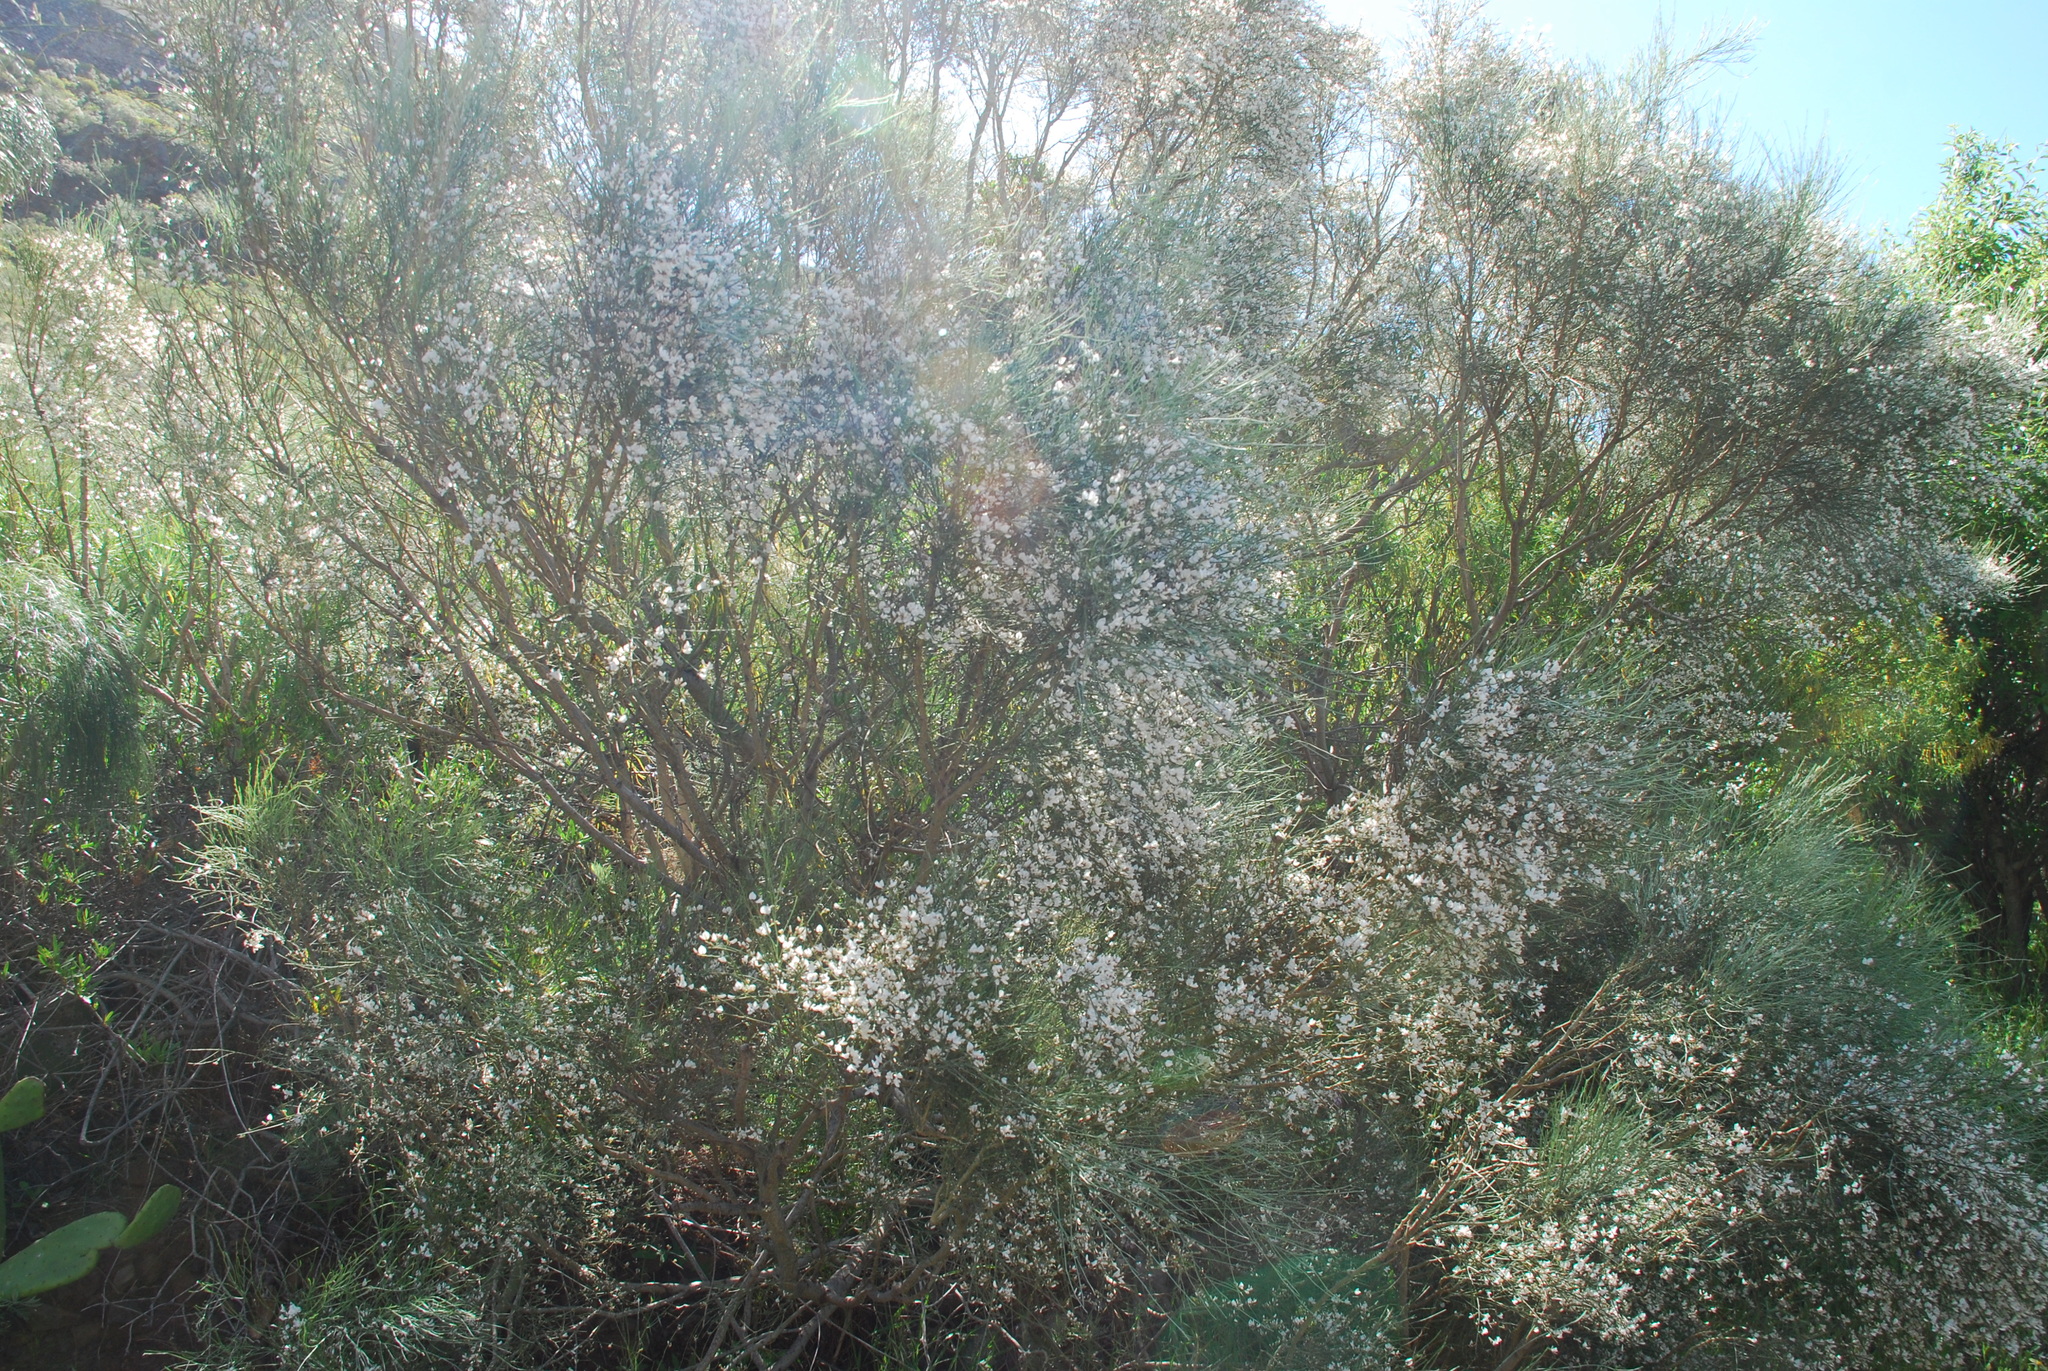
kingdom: Plantae
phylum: Tracheophyta
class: Magnoliopsida
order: Fabales
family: Fabaceae
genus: Retama
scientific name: Retama rhodorhizoides
